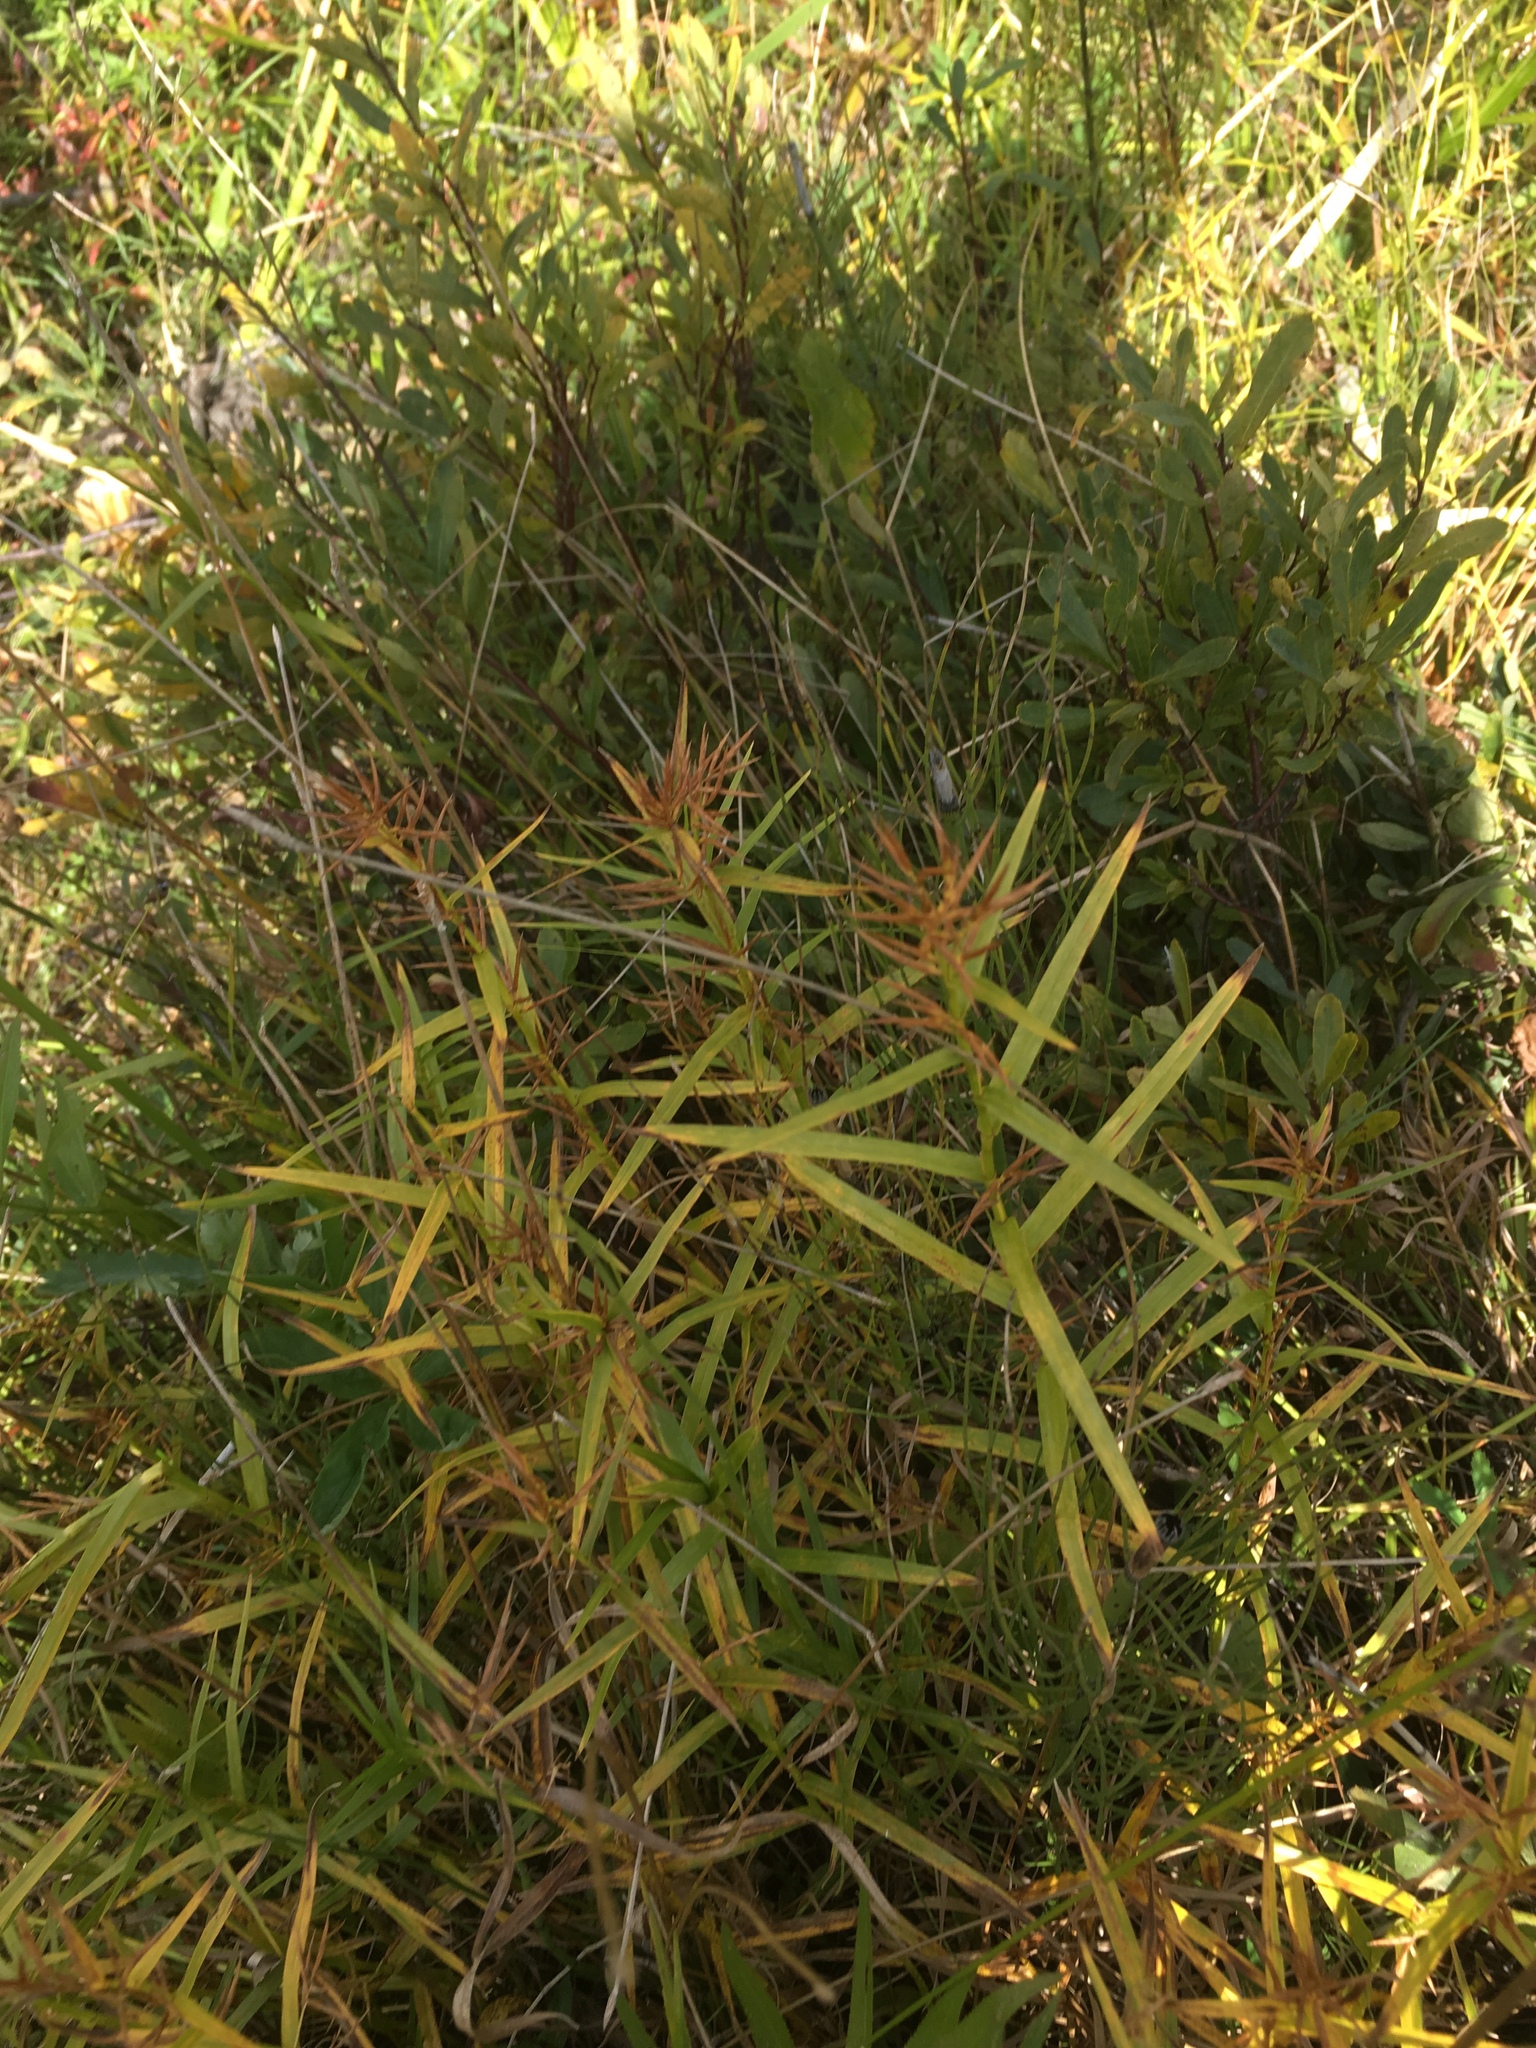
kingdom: Plantae
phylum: Tracheophyta
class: Liliopsida
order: Poales
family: Cyperaceae
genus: Dulichium
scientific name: Dulichium arundinaceum
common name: Three-way sedge
